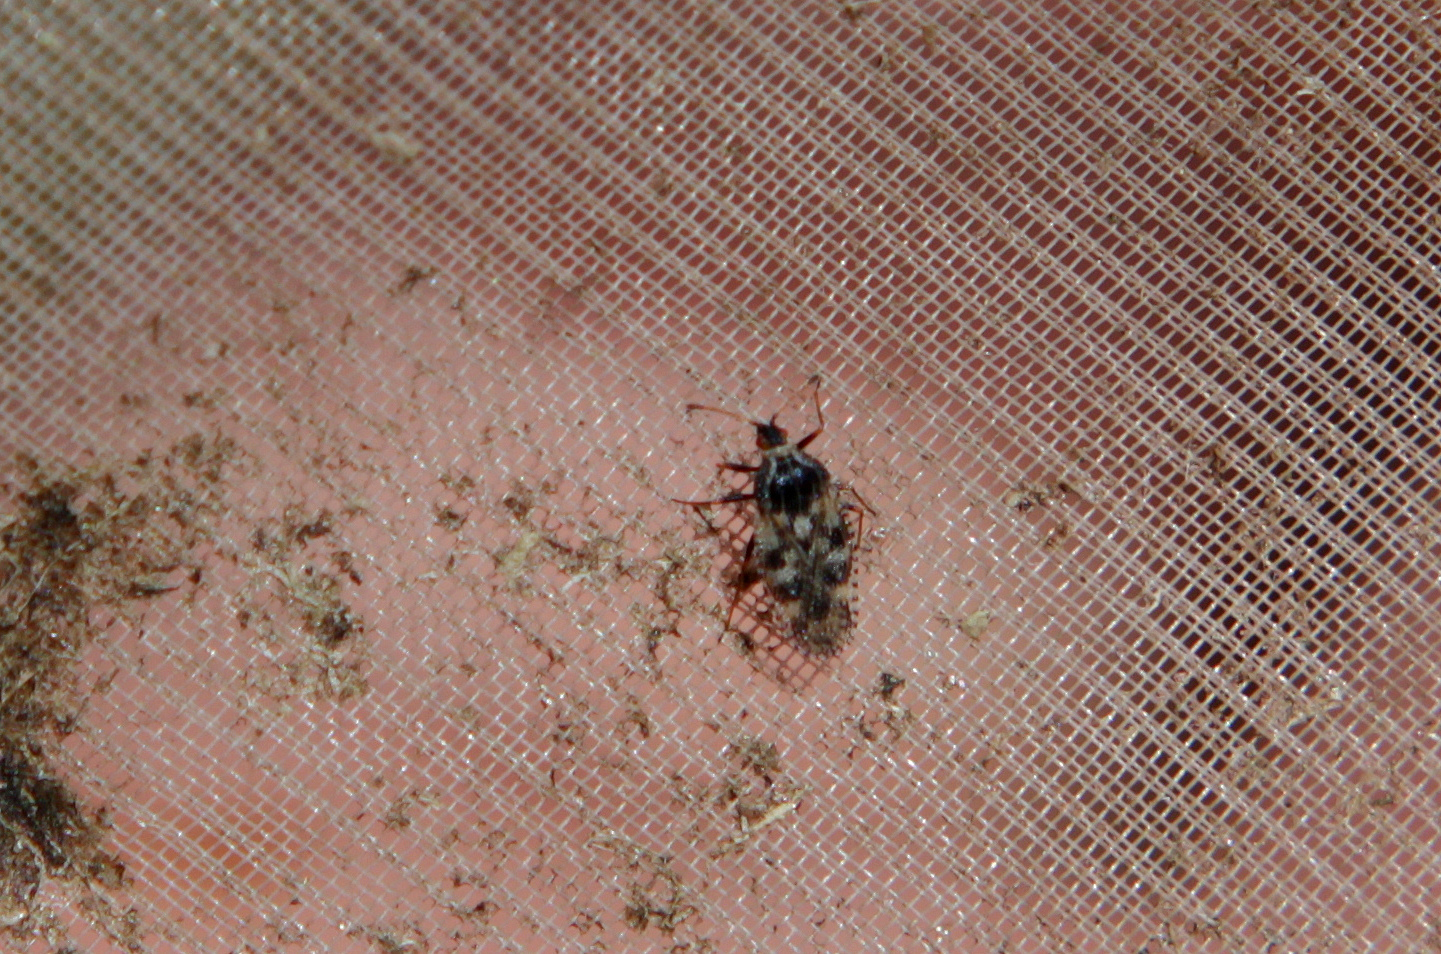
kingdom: Animalia
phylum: Arthropoda
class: Insecta
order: Hemiptera
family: Tingidae
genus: Dictyla
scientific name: Dictyla echii
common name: Lace bug
